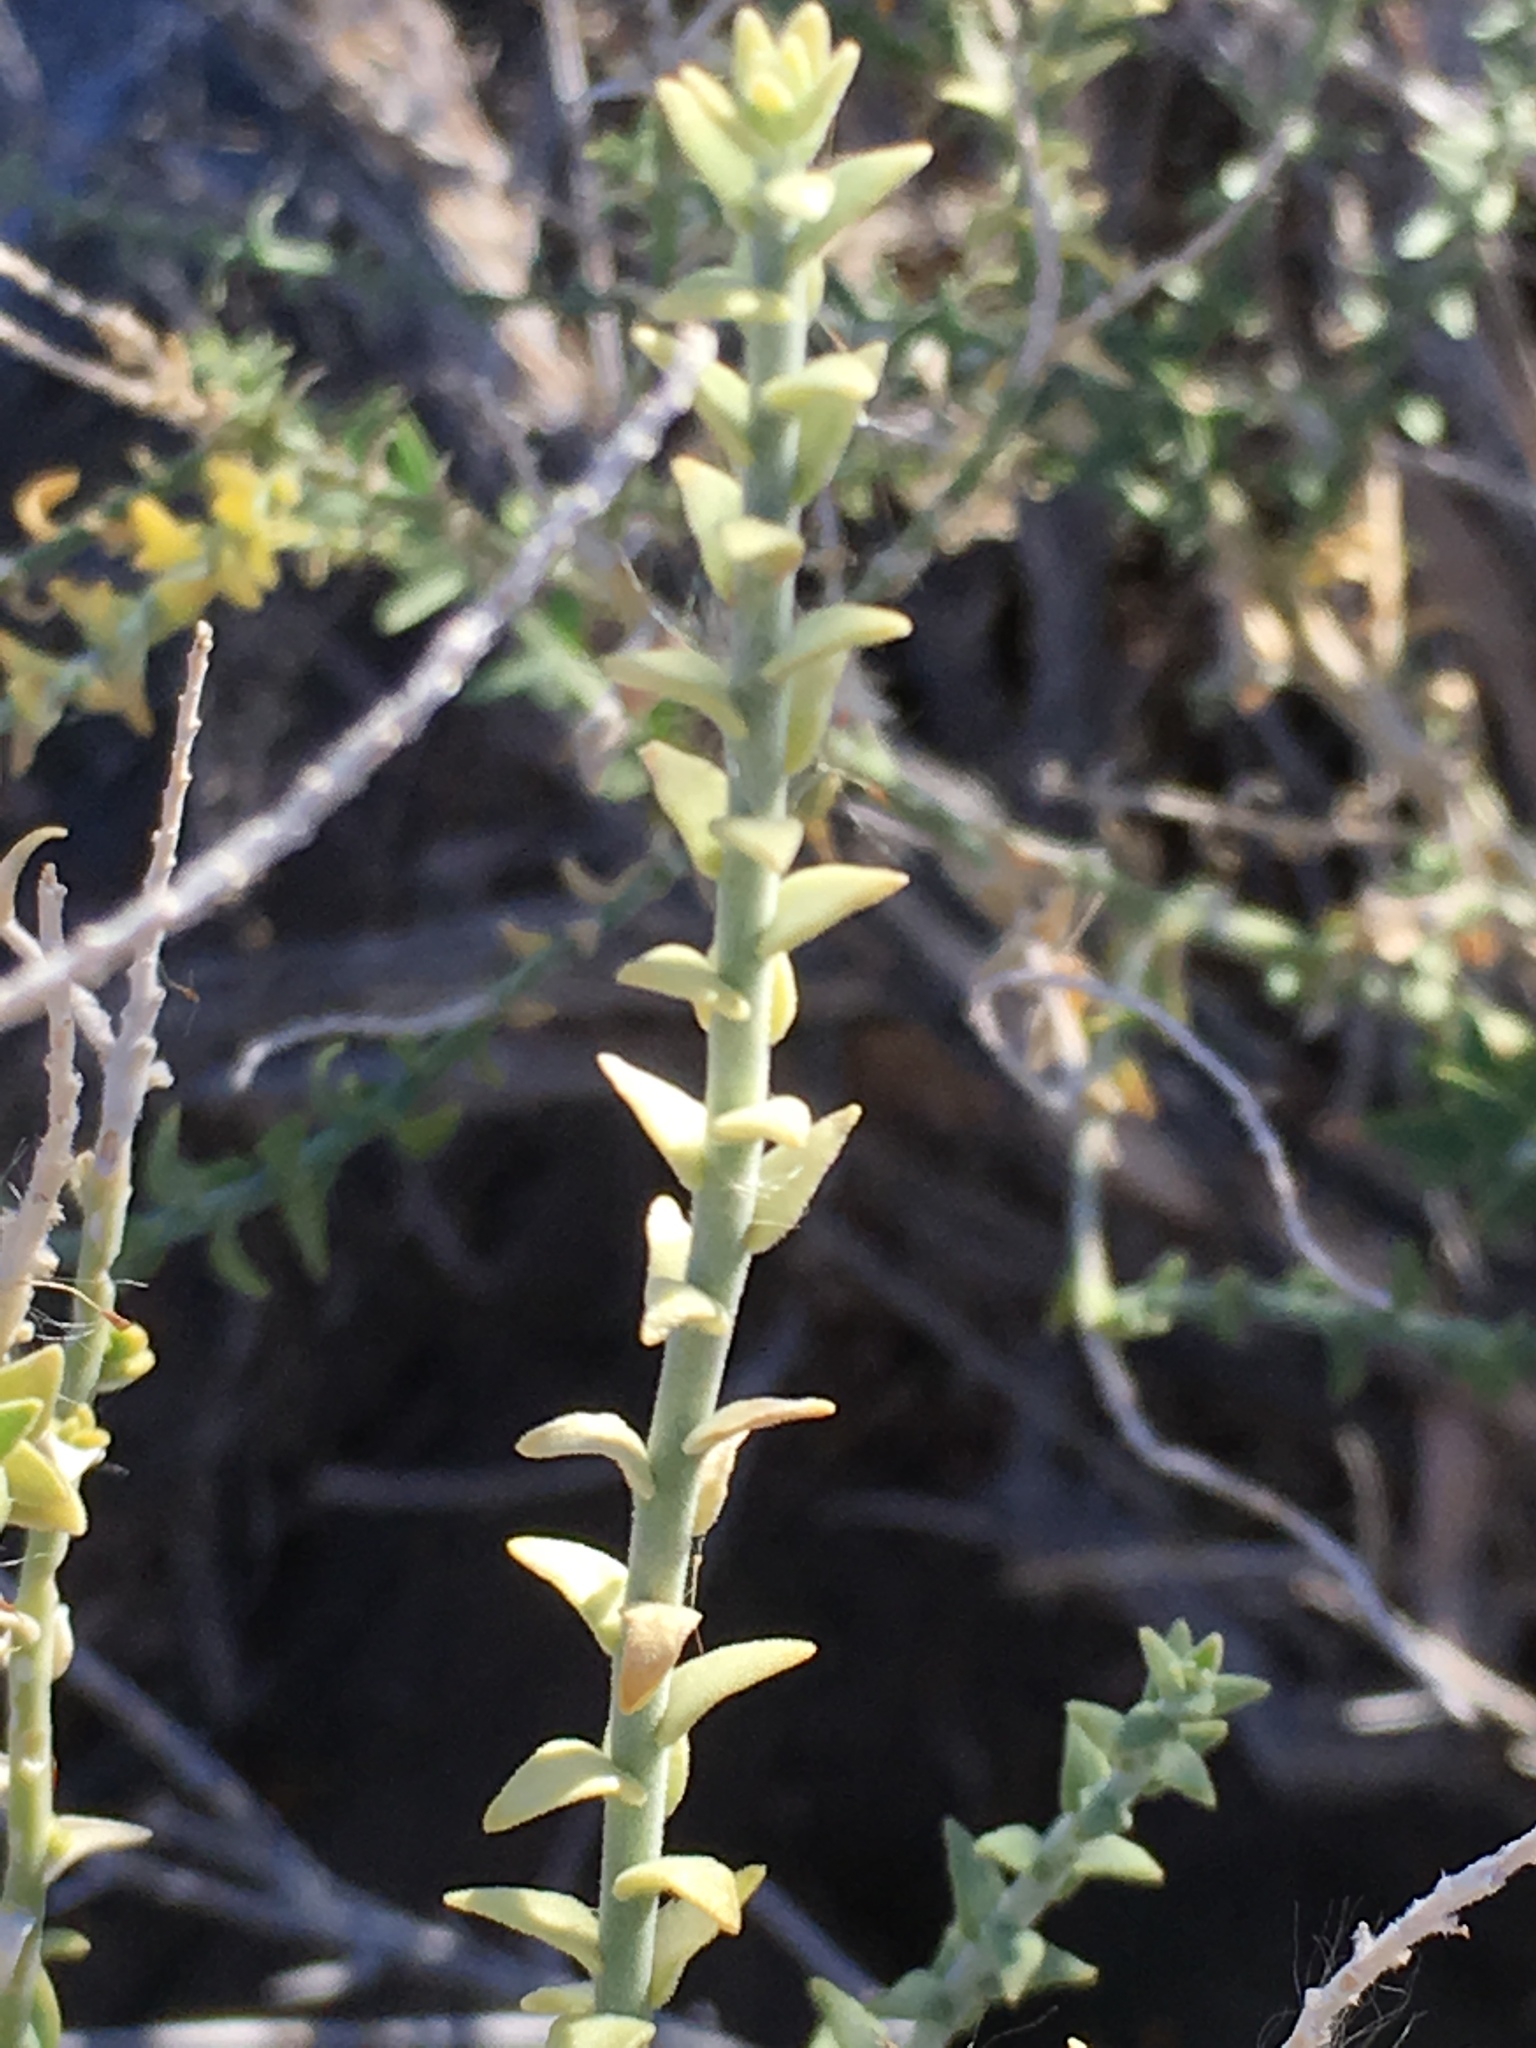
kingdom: Plantae
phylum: Tracheophyta
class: Magnoliopsida
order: Cornales
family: Loasaceae
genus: Petalonyx
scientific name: Petalonyx thurberi
